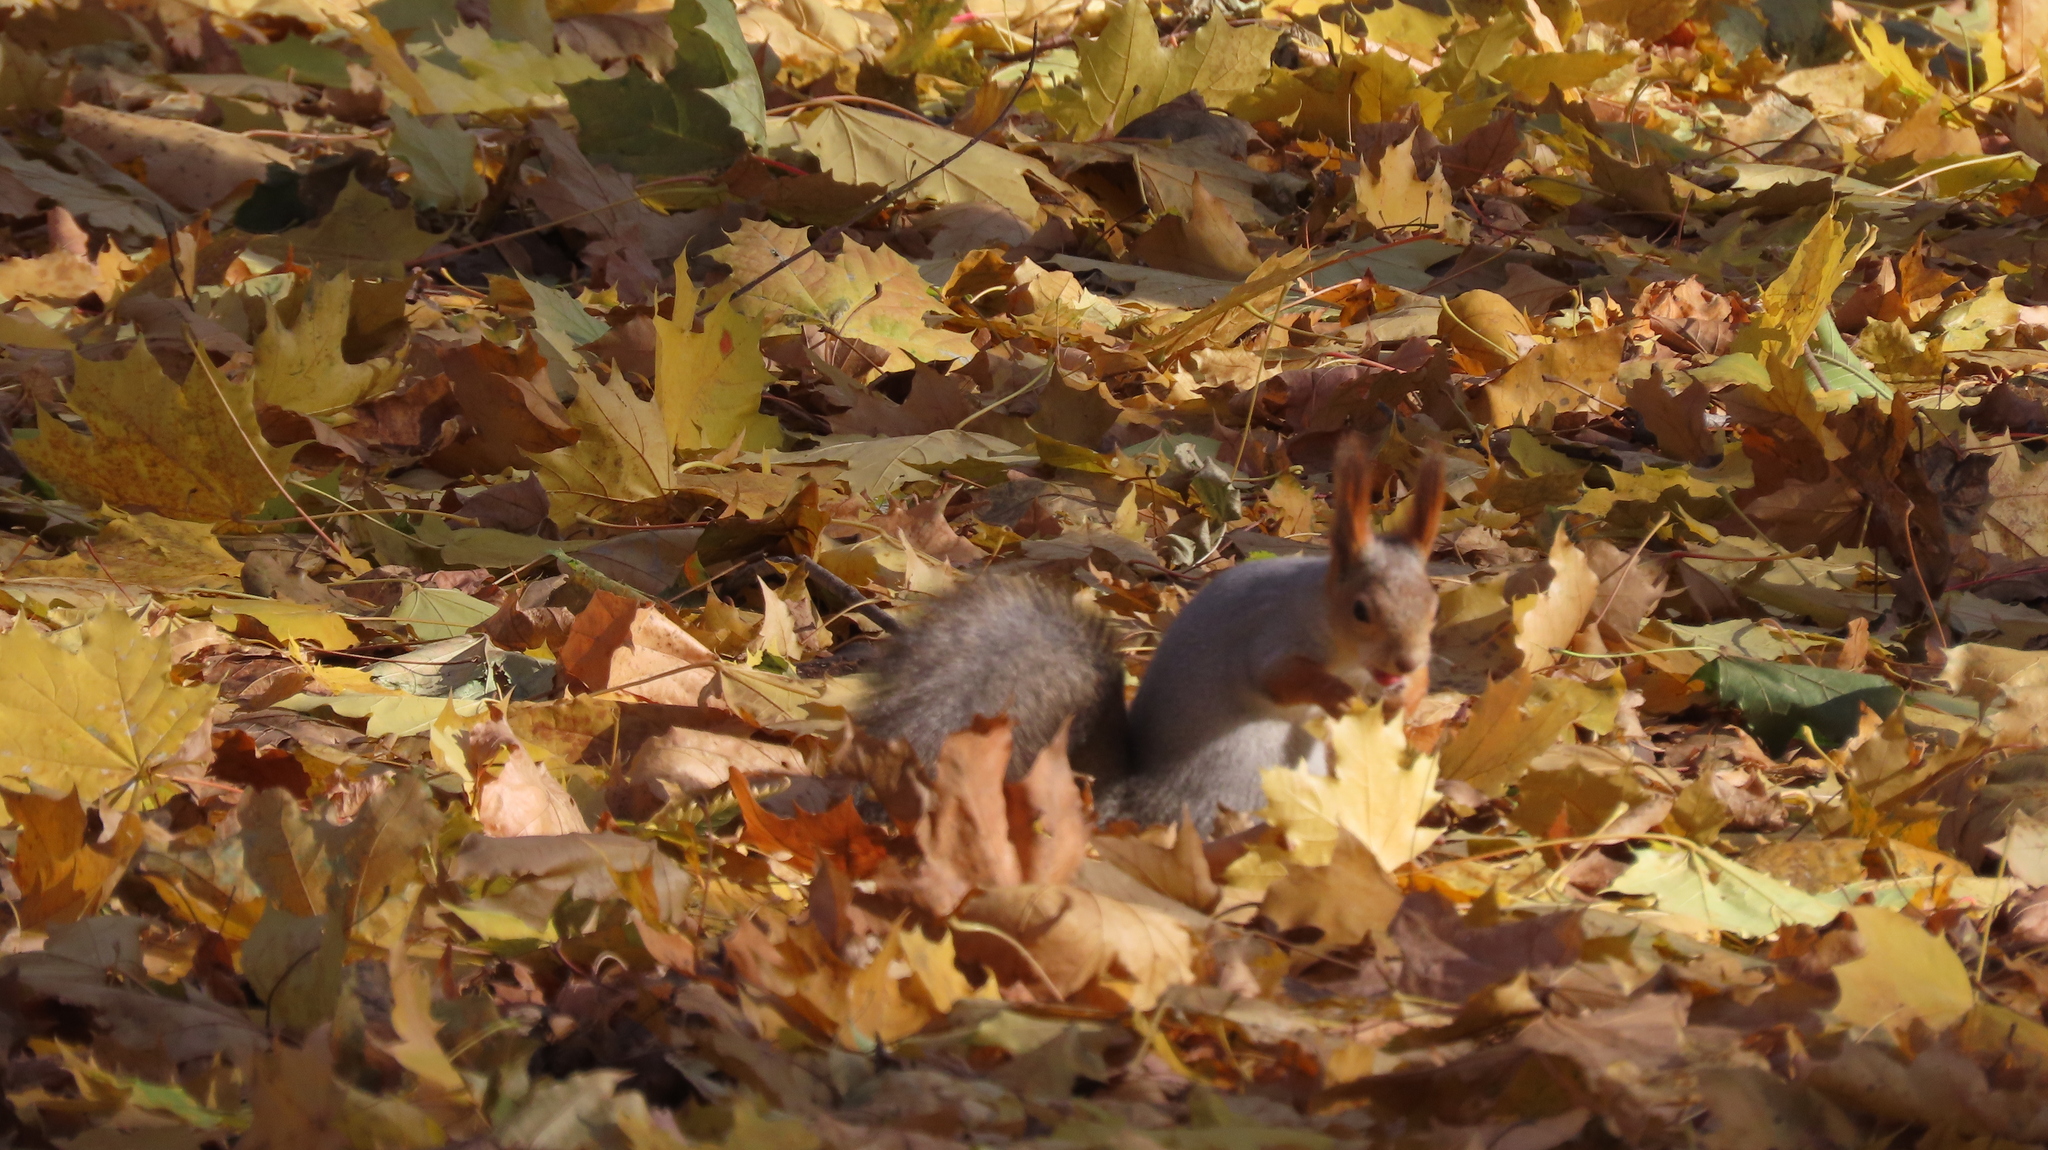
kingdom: Animalia
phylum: Chordata
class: Mammalia
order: Rodentia
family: Sciuridae
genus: Sciurus
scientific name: Sciurus vulgaris
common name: Eurasian red squirrel
